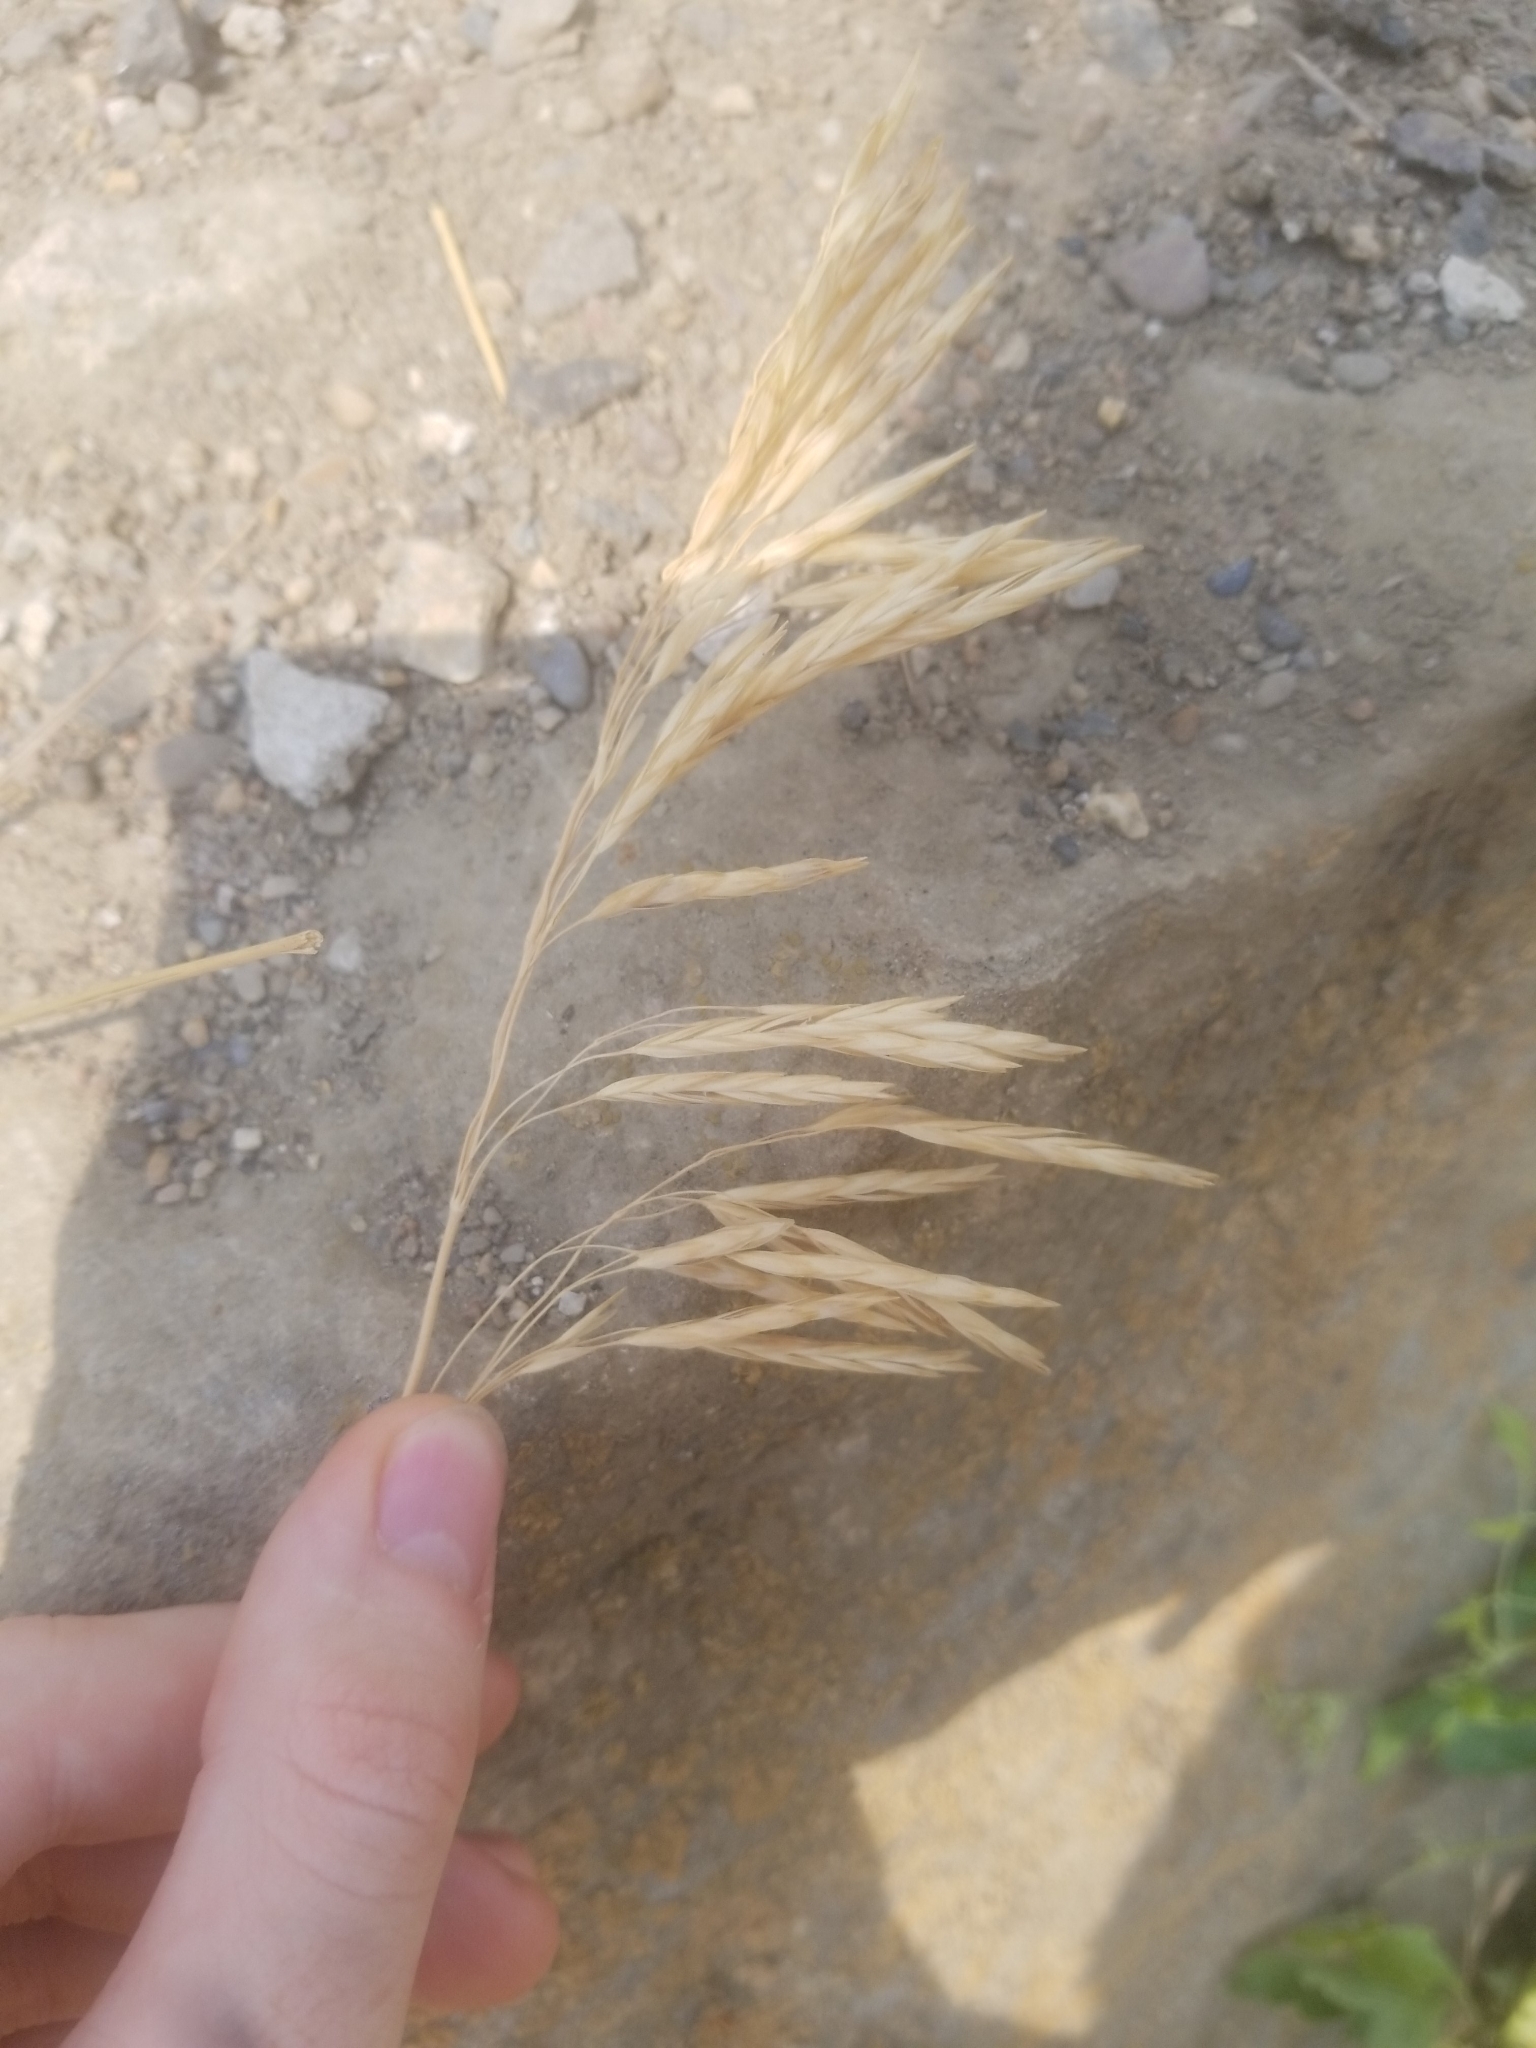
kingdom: Plantae
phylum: Tracheophyta
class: Liliopsida
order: Poales
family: Poaceae
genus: Bromus
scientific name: Bromus inermis
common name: Smooth brome
